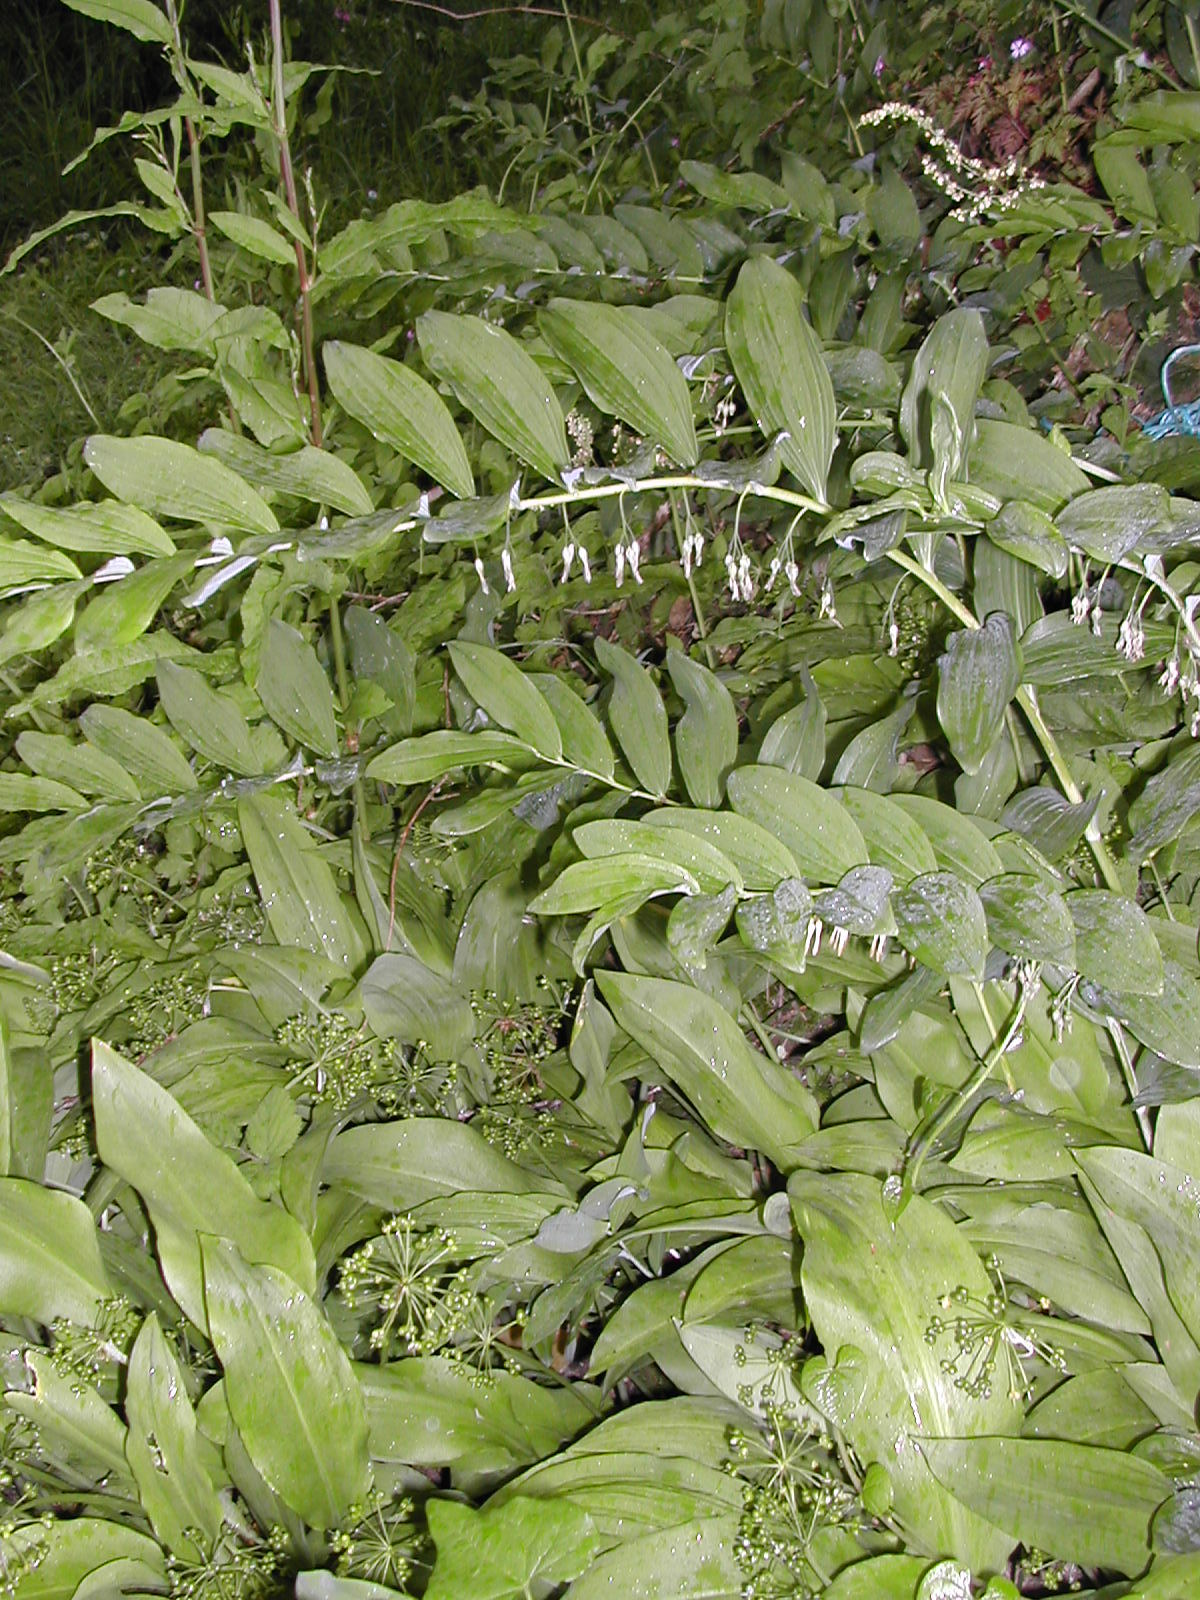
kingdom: Plantae
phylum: Tracheophyta
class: Liliopsida
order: Asparagales
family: Asparagaceae
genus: Polygonatum
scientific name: Polygonatum multiflorum
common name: Solomon's-seal
